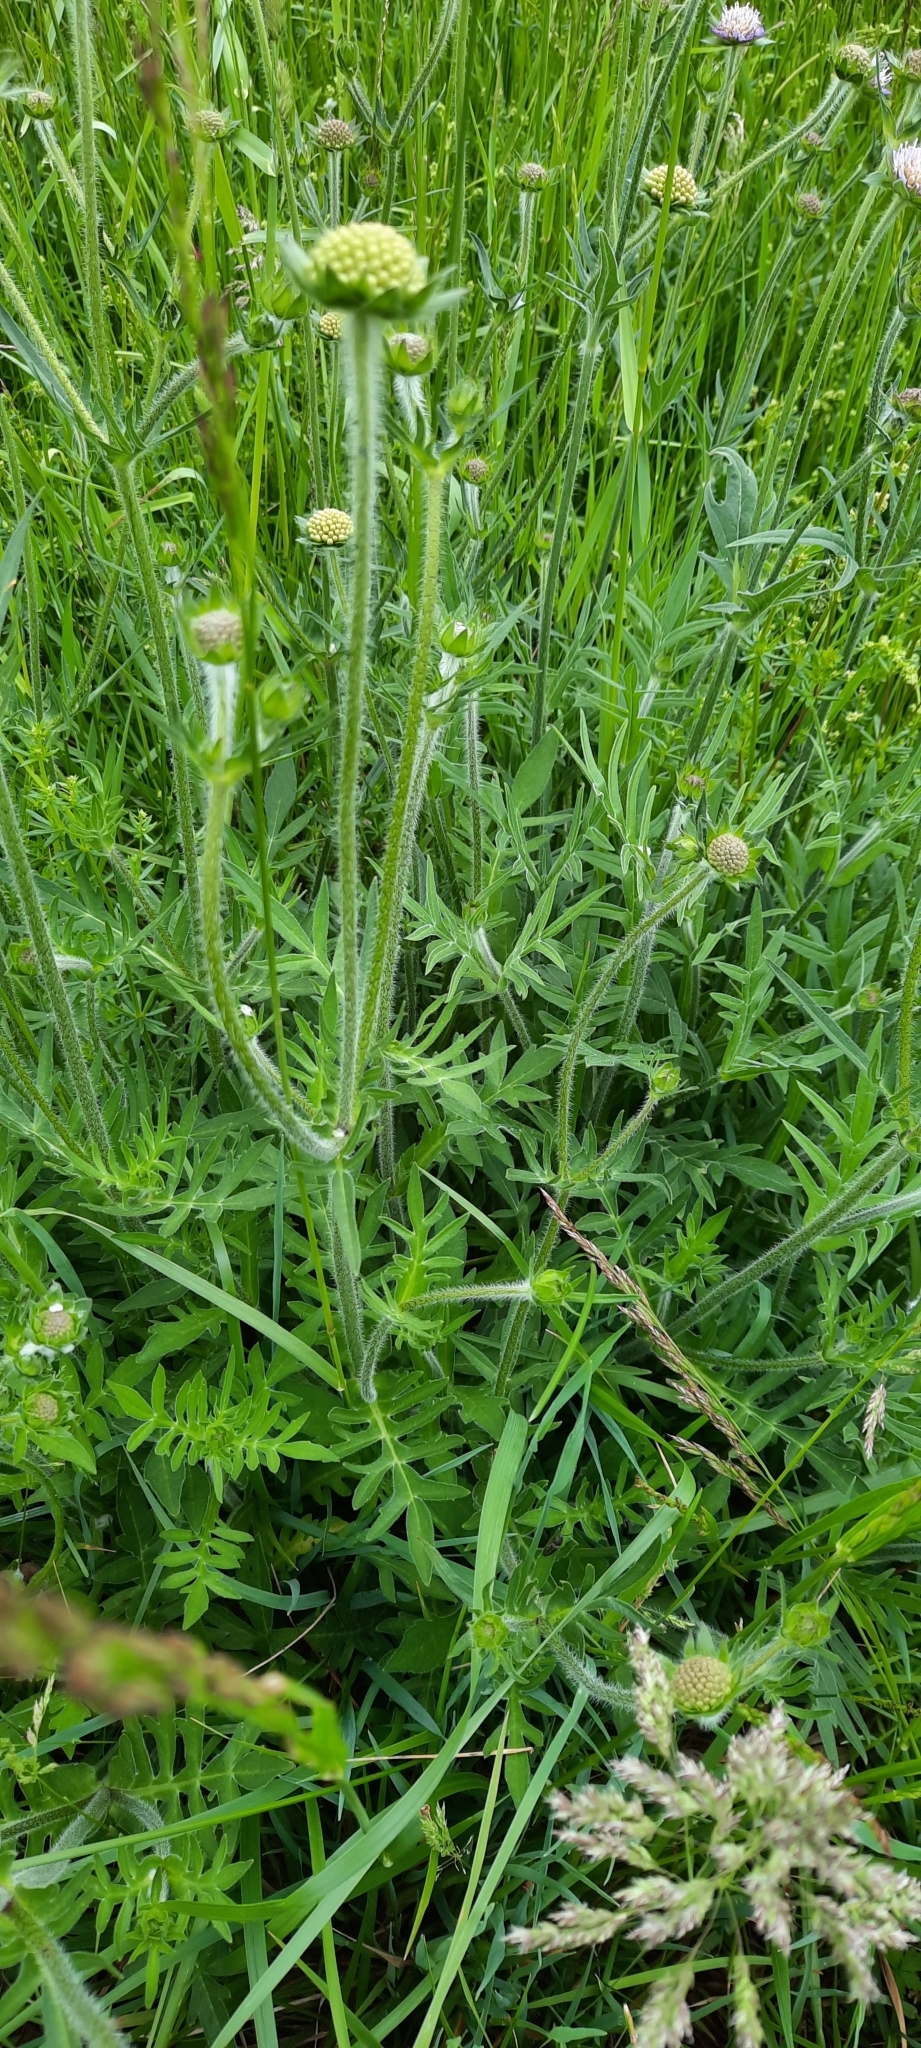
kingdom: Plantae
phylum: Tracheophyta
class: Magnoliopsida
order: Dipsacales
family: Caprifoliaceae
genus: Knautia
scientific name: Knautia arvensis
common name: Field scabiosa
